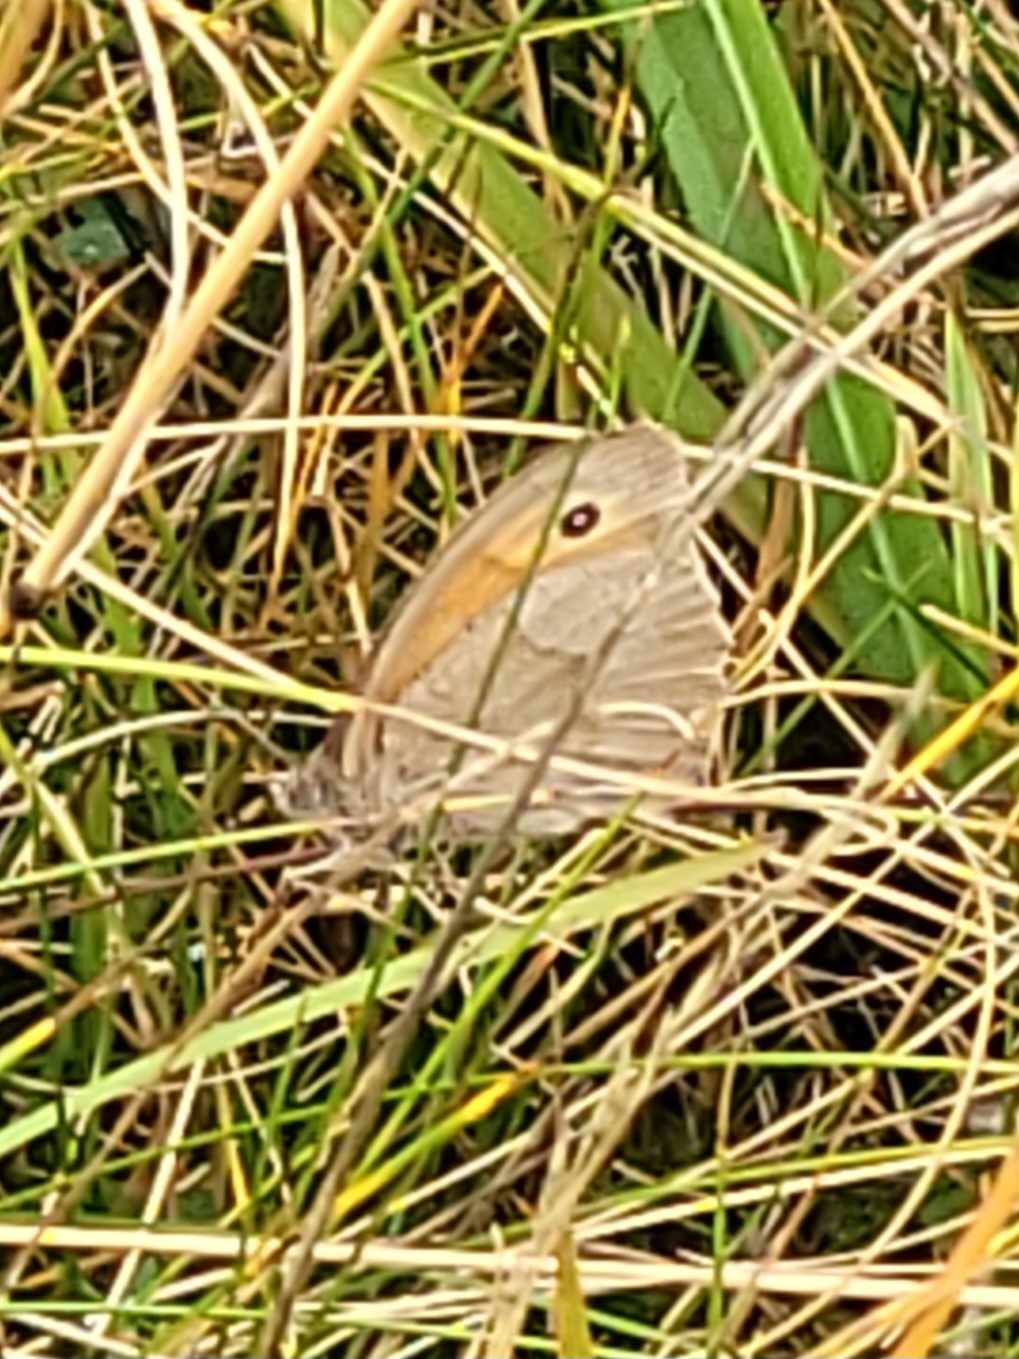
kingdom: Animalia
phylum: Arthropoda
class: Insecta
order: Lepidoptera
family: Nymphalidae
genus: Maniola
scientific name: Maniola jurtina
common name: Meadow brown
